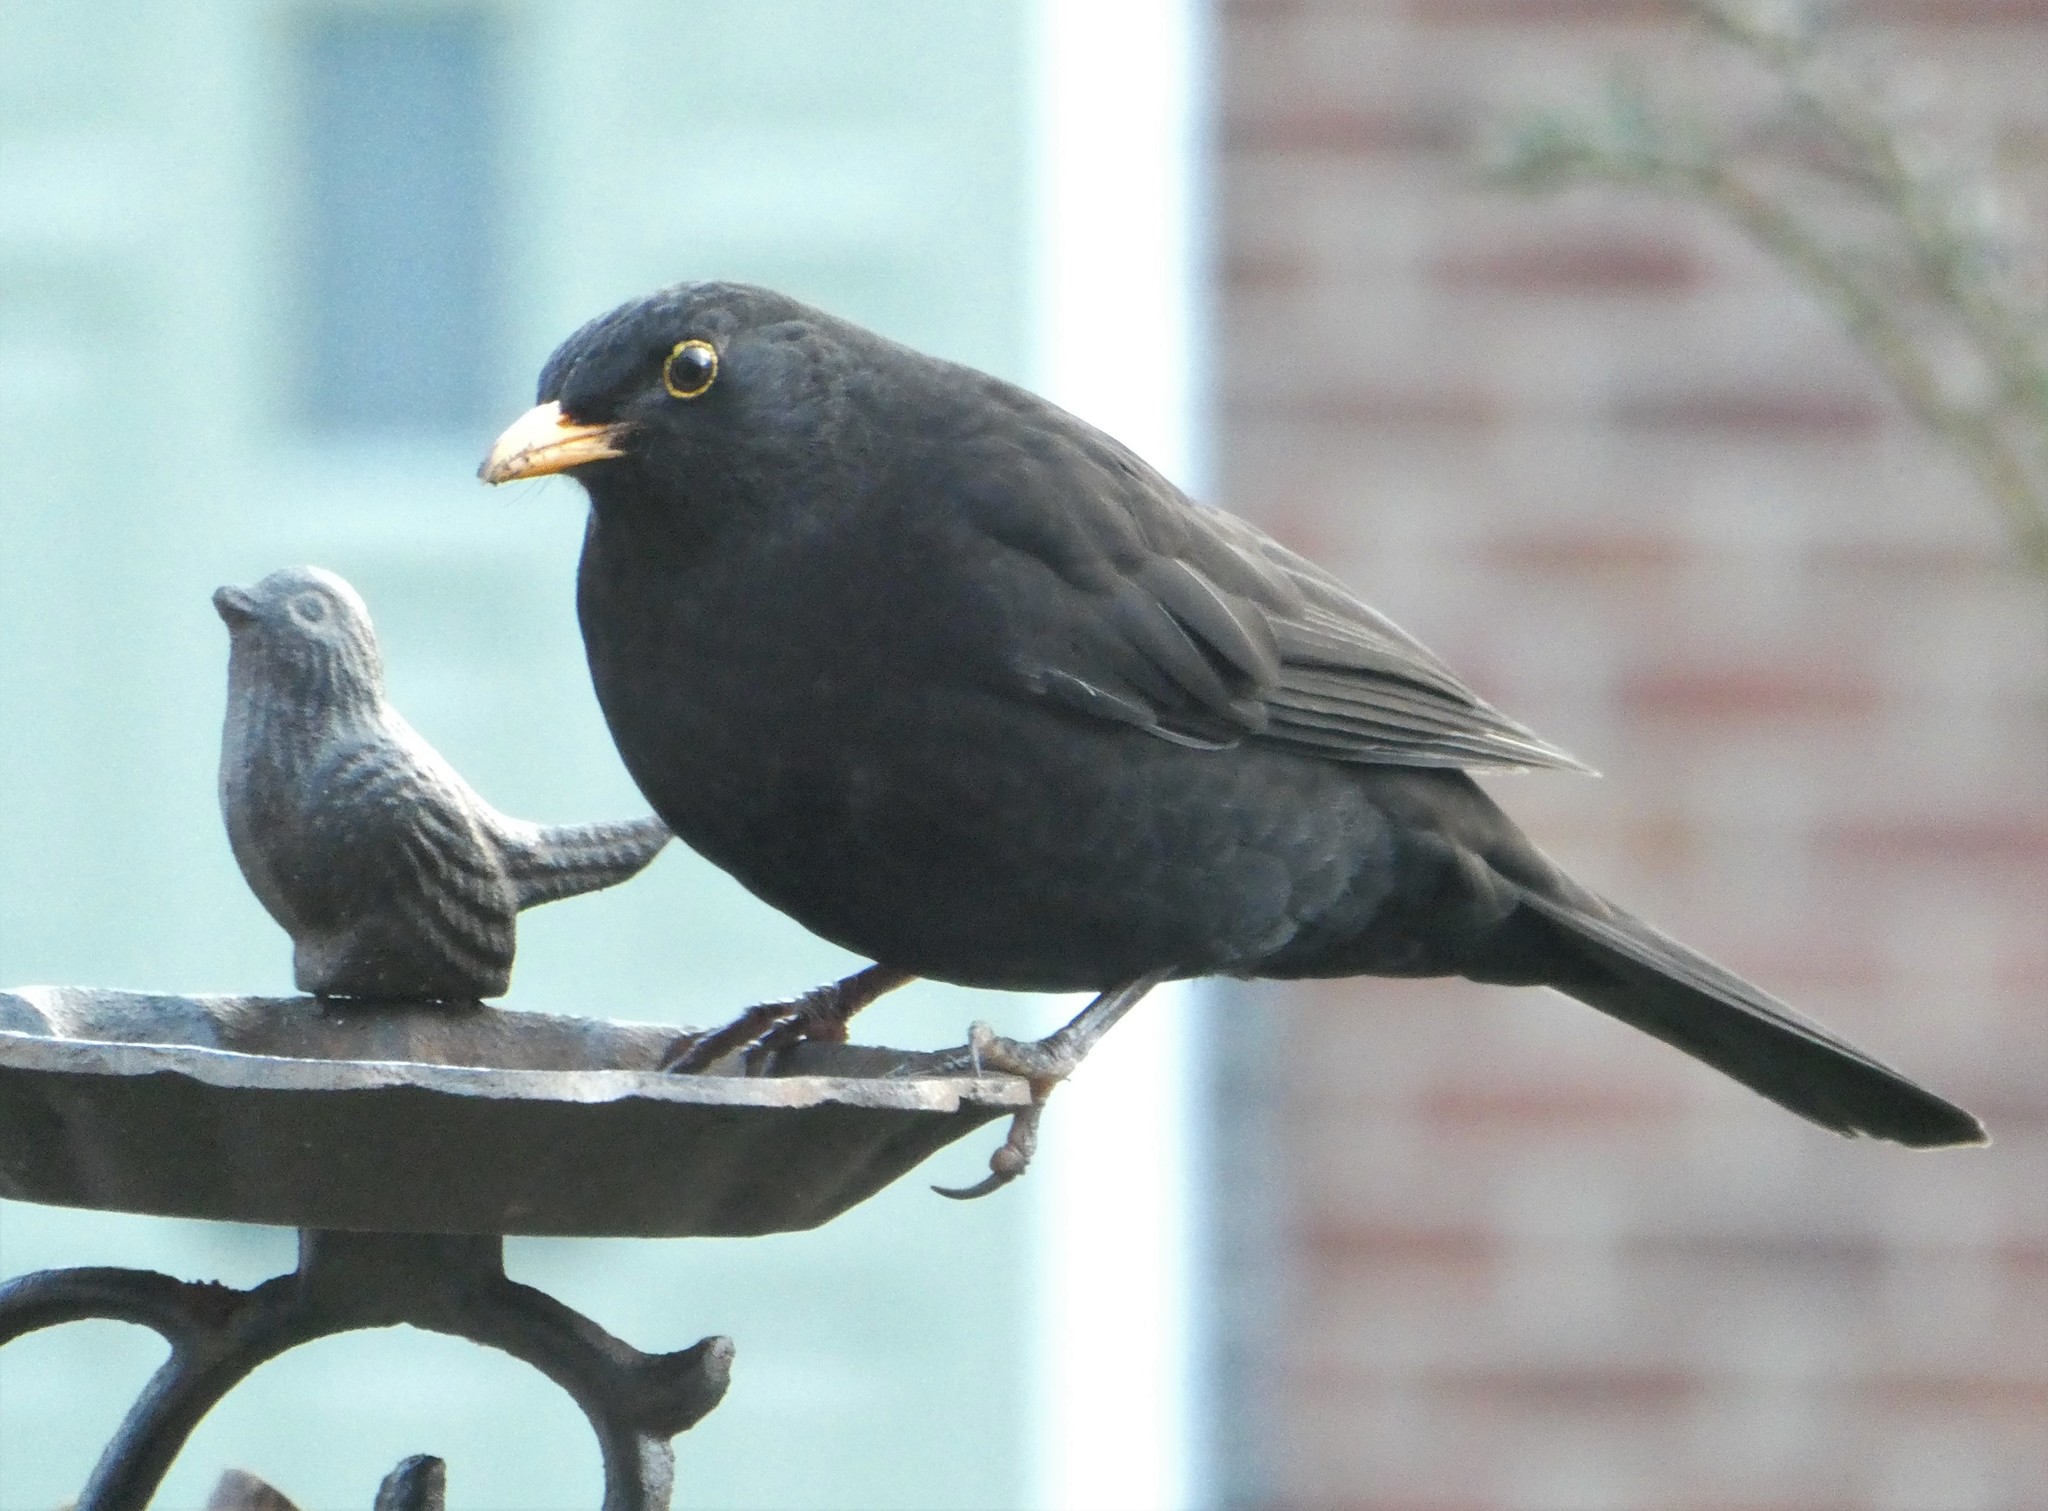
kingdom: Animalia
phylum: Chordata
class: Aves
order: Passeriformes
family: Turdidae
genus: Turdus
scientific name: Turdus merula
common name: Common blackbird
